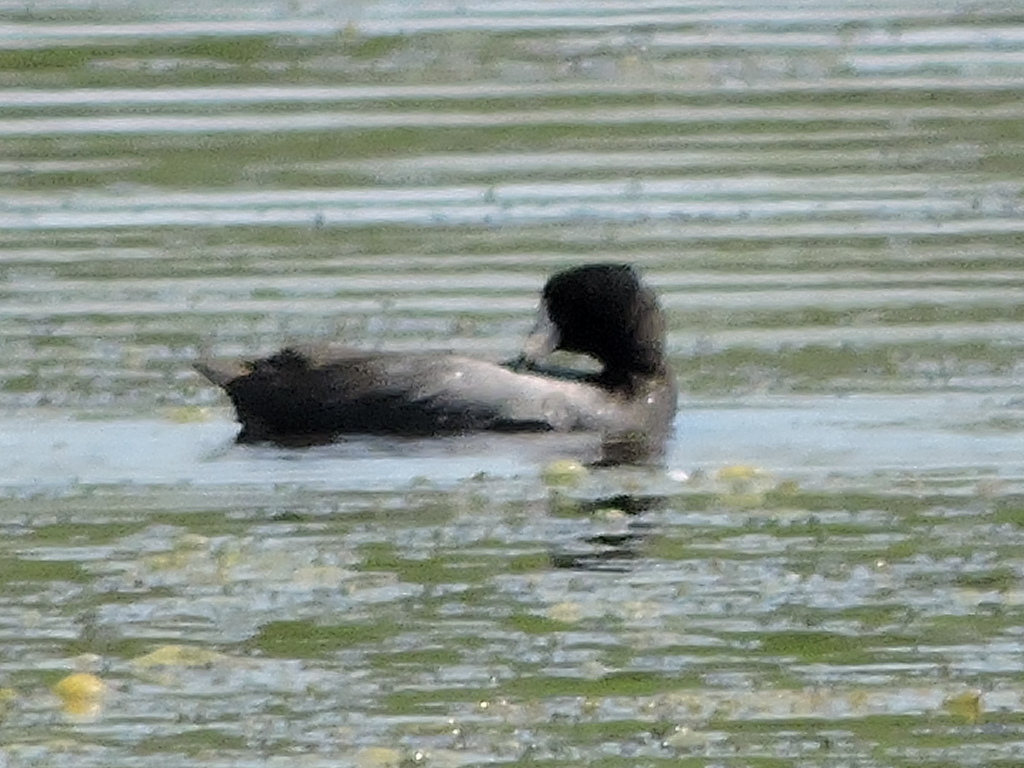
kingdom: Animalia
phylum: Chordata
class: Aves
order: Gruiformes
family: Rallidae
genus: Fulica
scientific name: Fulica americana
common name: American coot
